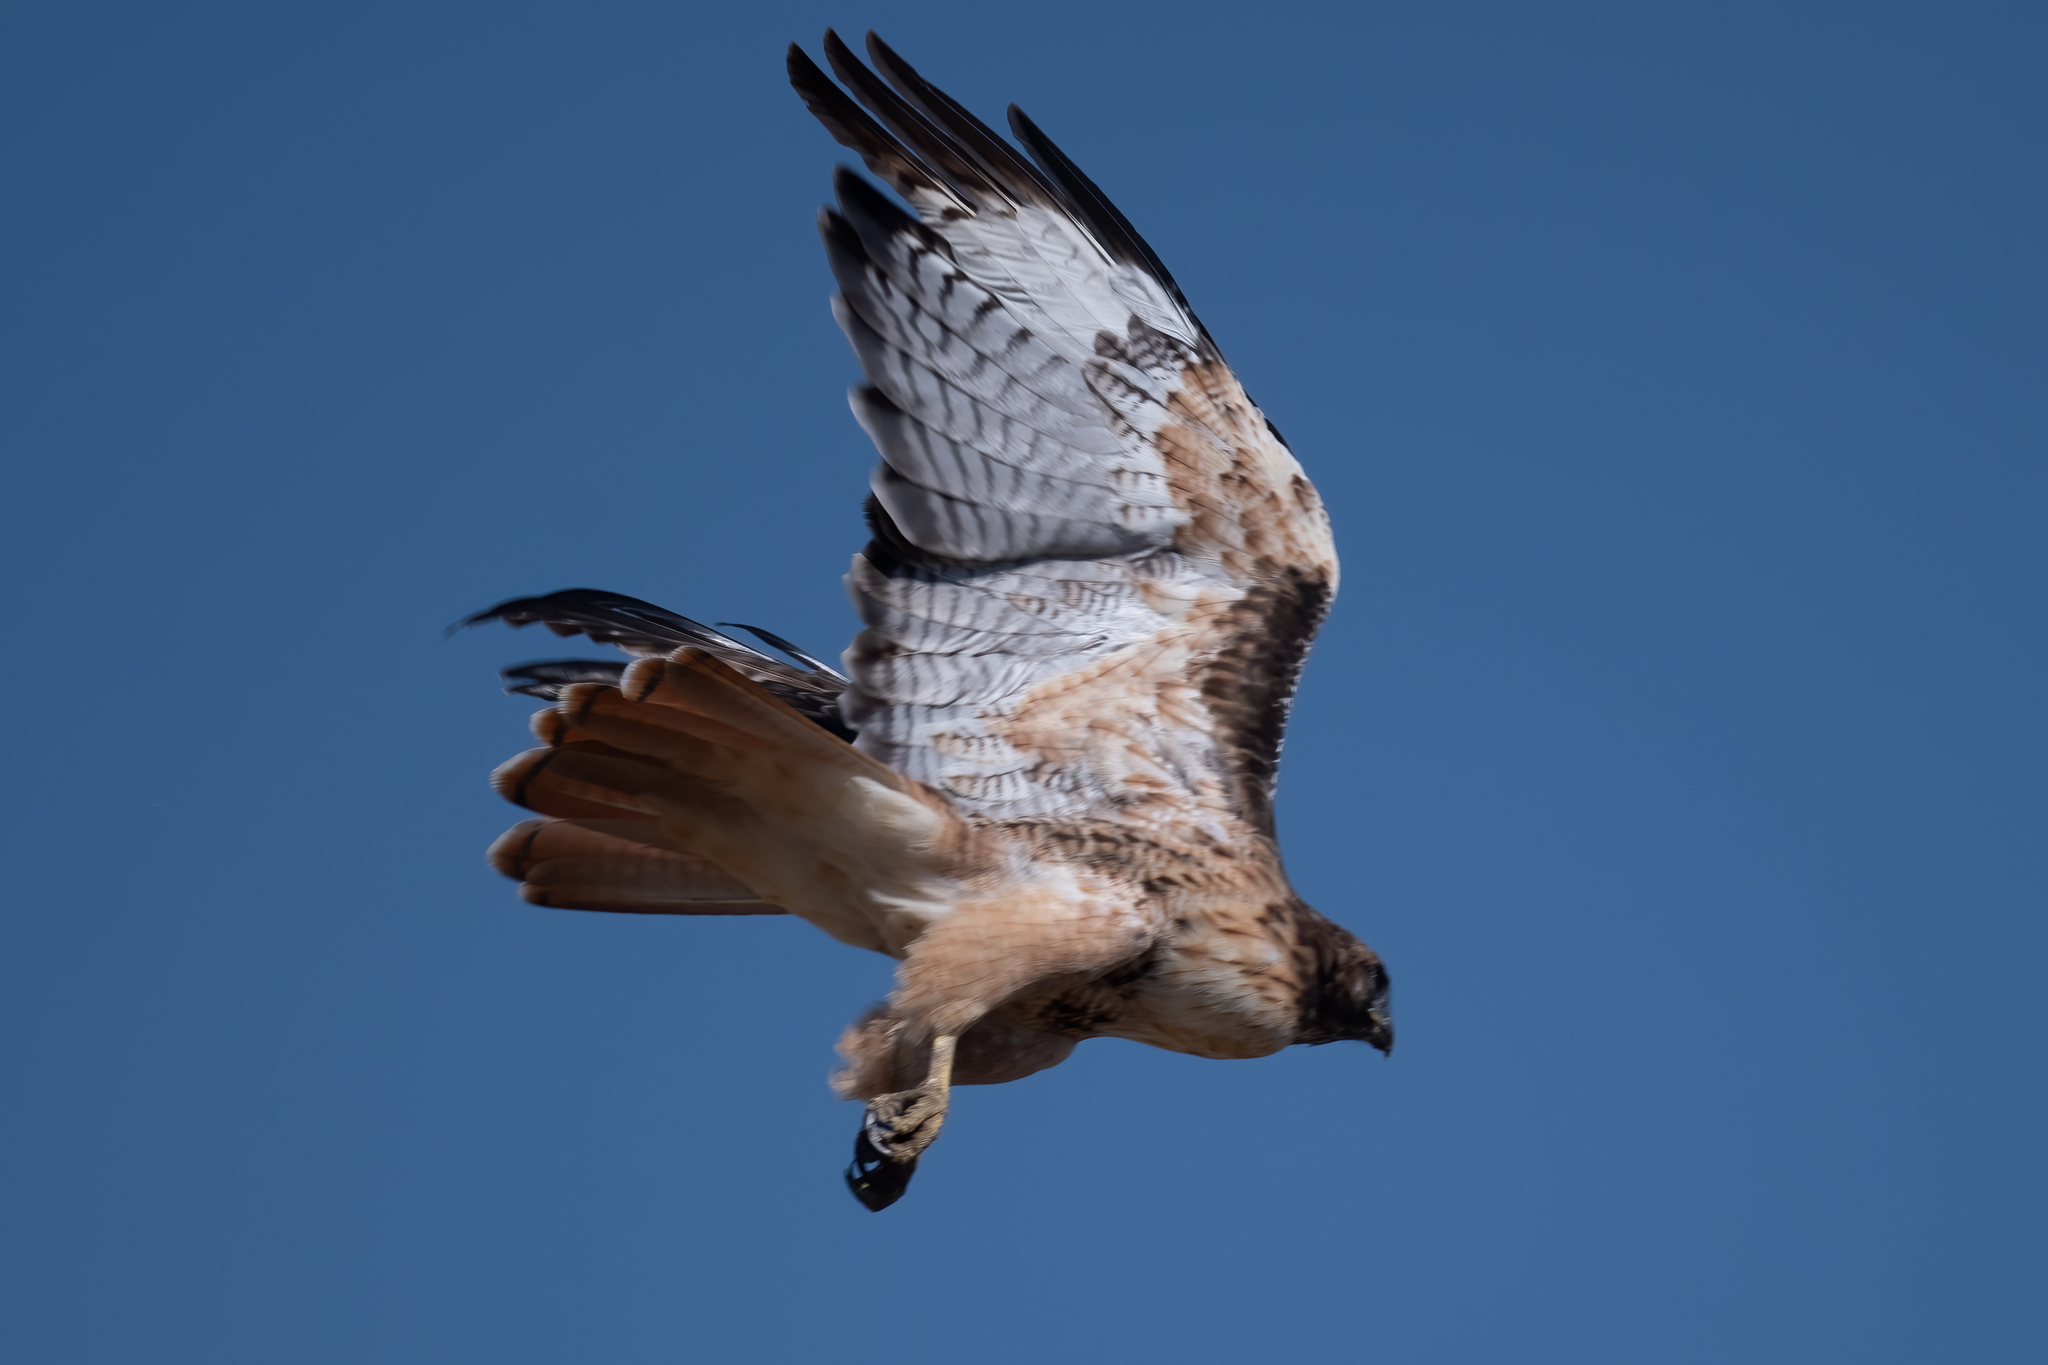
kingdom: Animalia
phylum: Chordata
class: Aves
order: Accipitriformes
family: Accipitridae
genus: Buteo
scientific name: Buteo jamaicensis
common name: Red-tailed hawk
